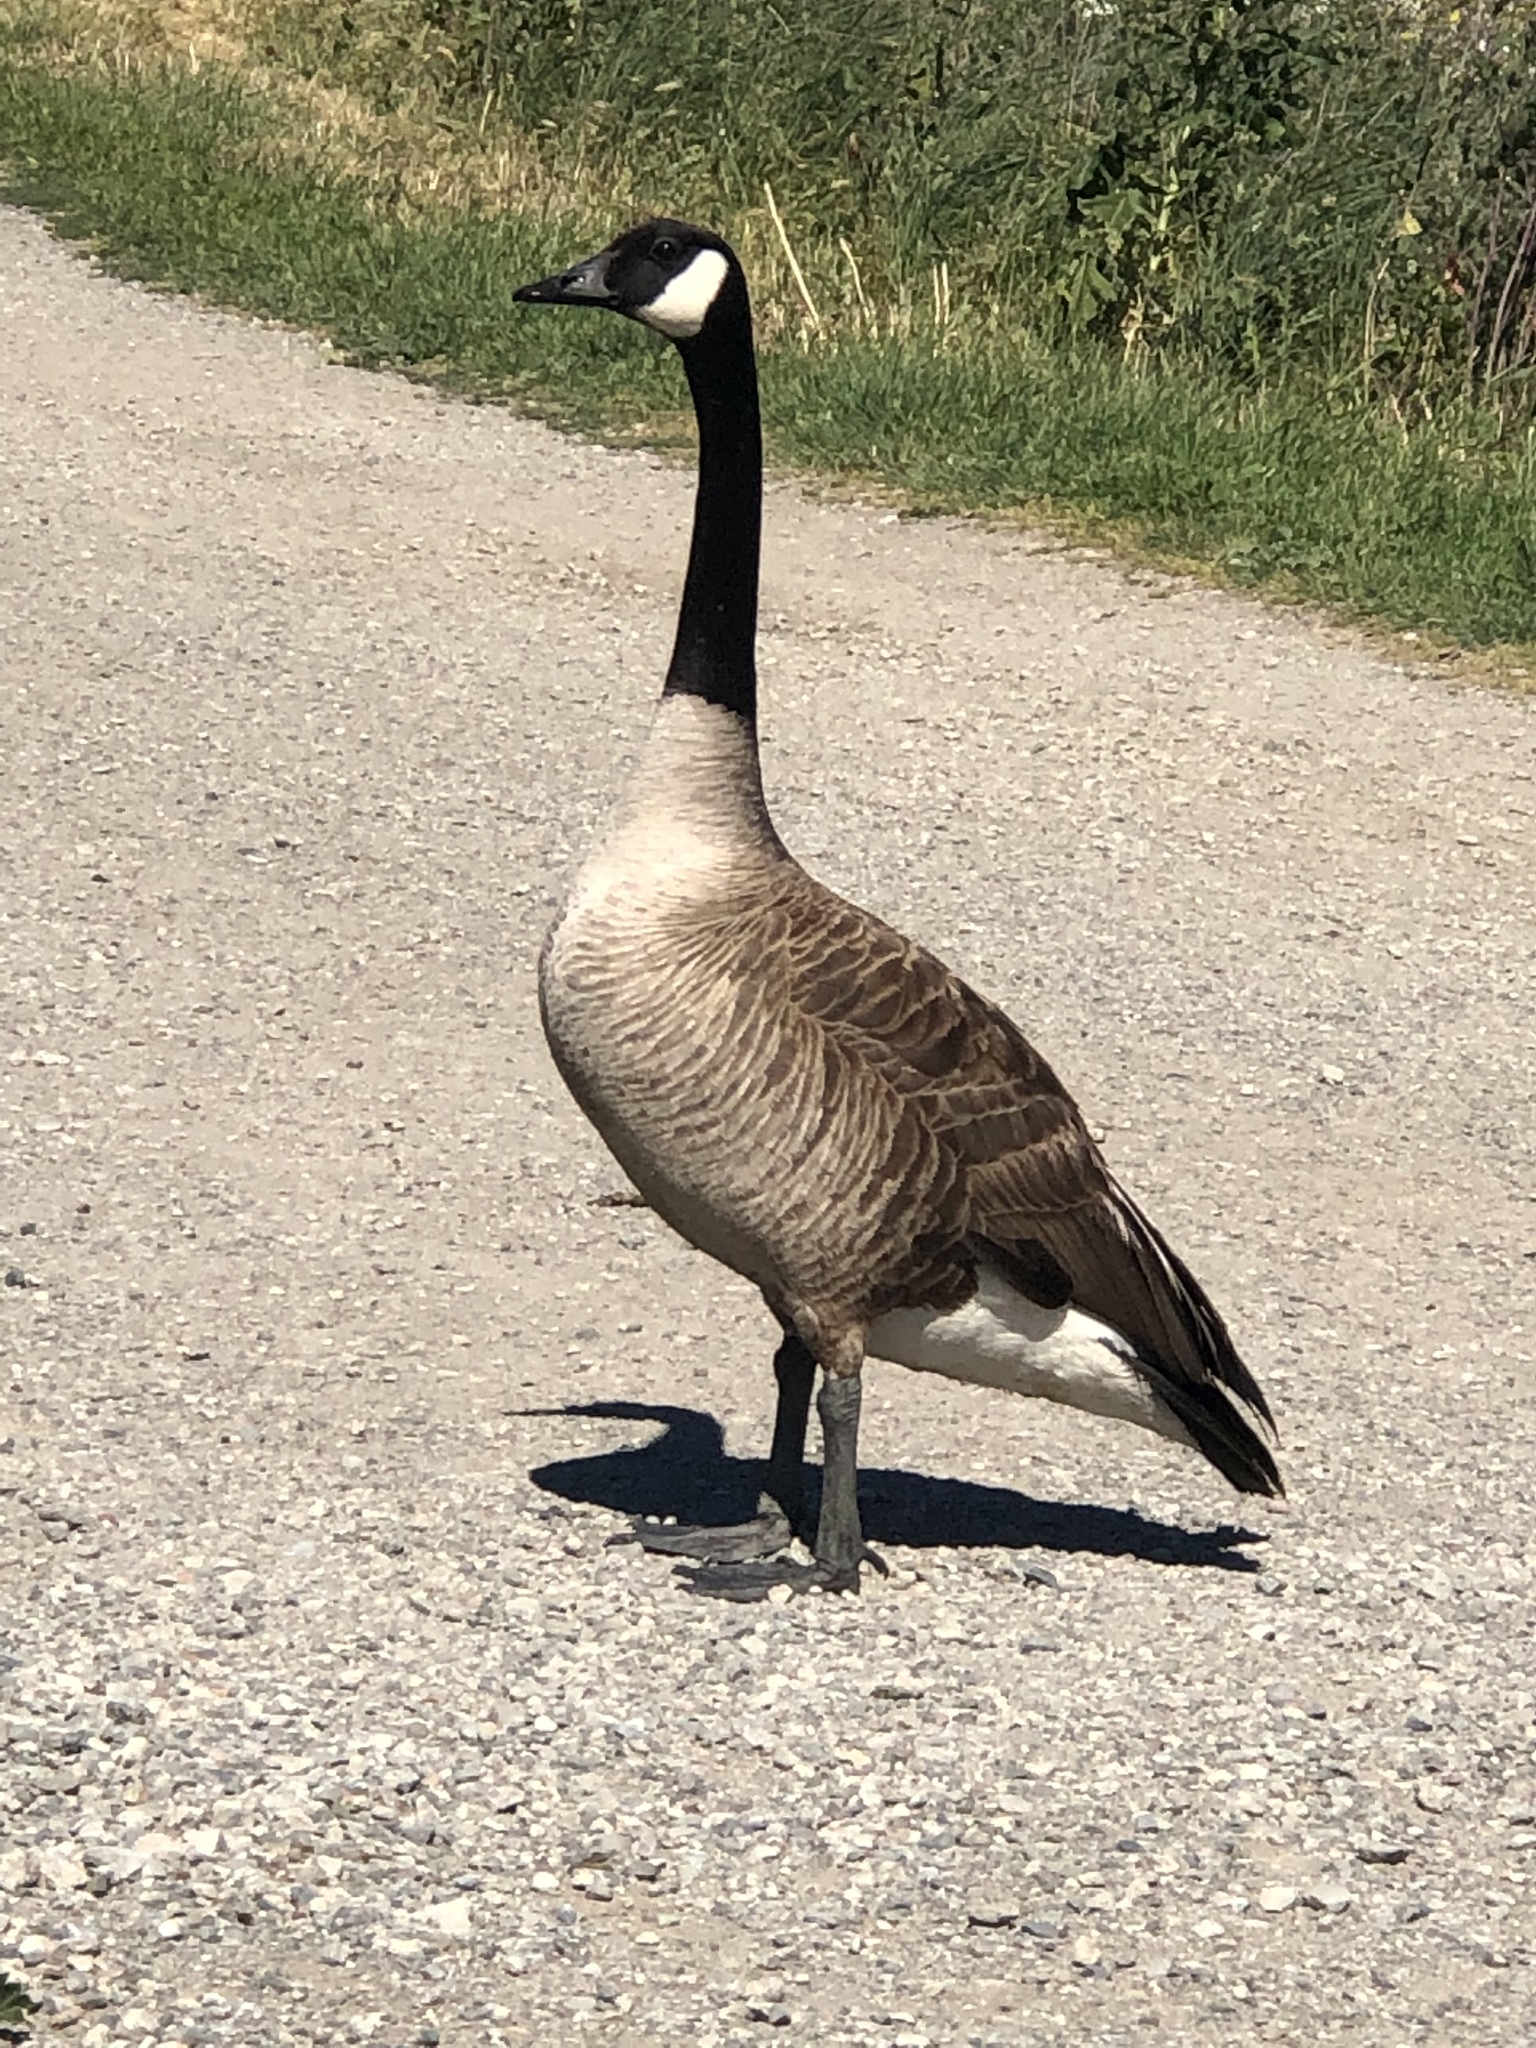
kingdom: Animalia
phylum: Chordata
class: Aves
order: Anseriformes
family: Anatidae
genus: Branta
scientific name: Branta canadensis
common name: Canada goose
